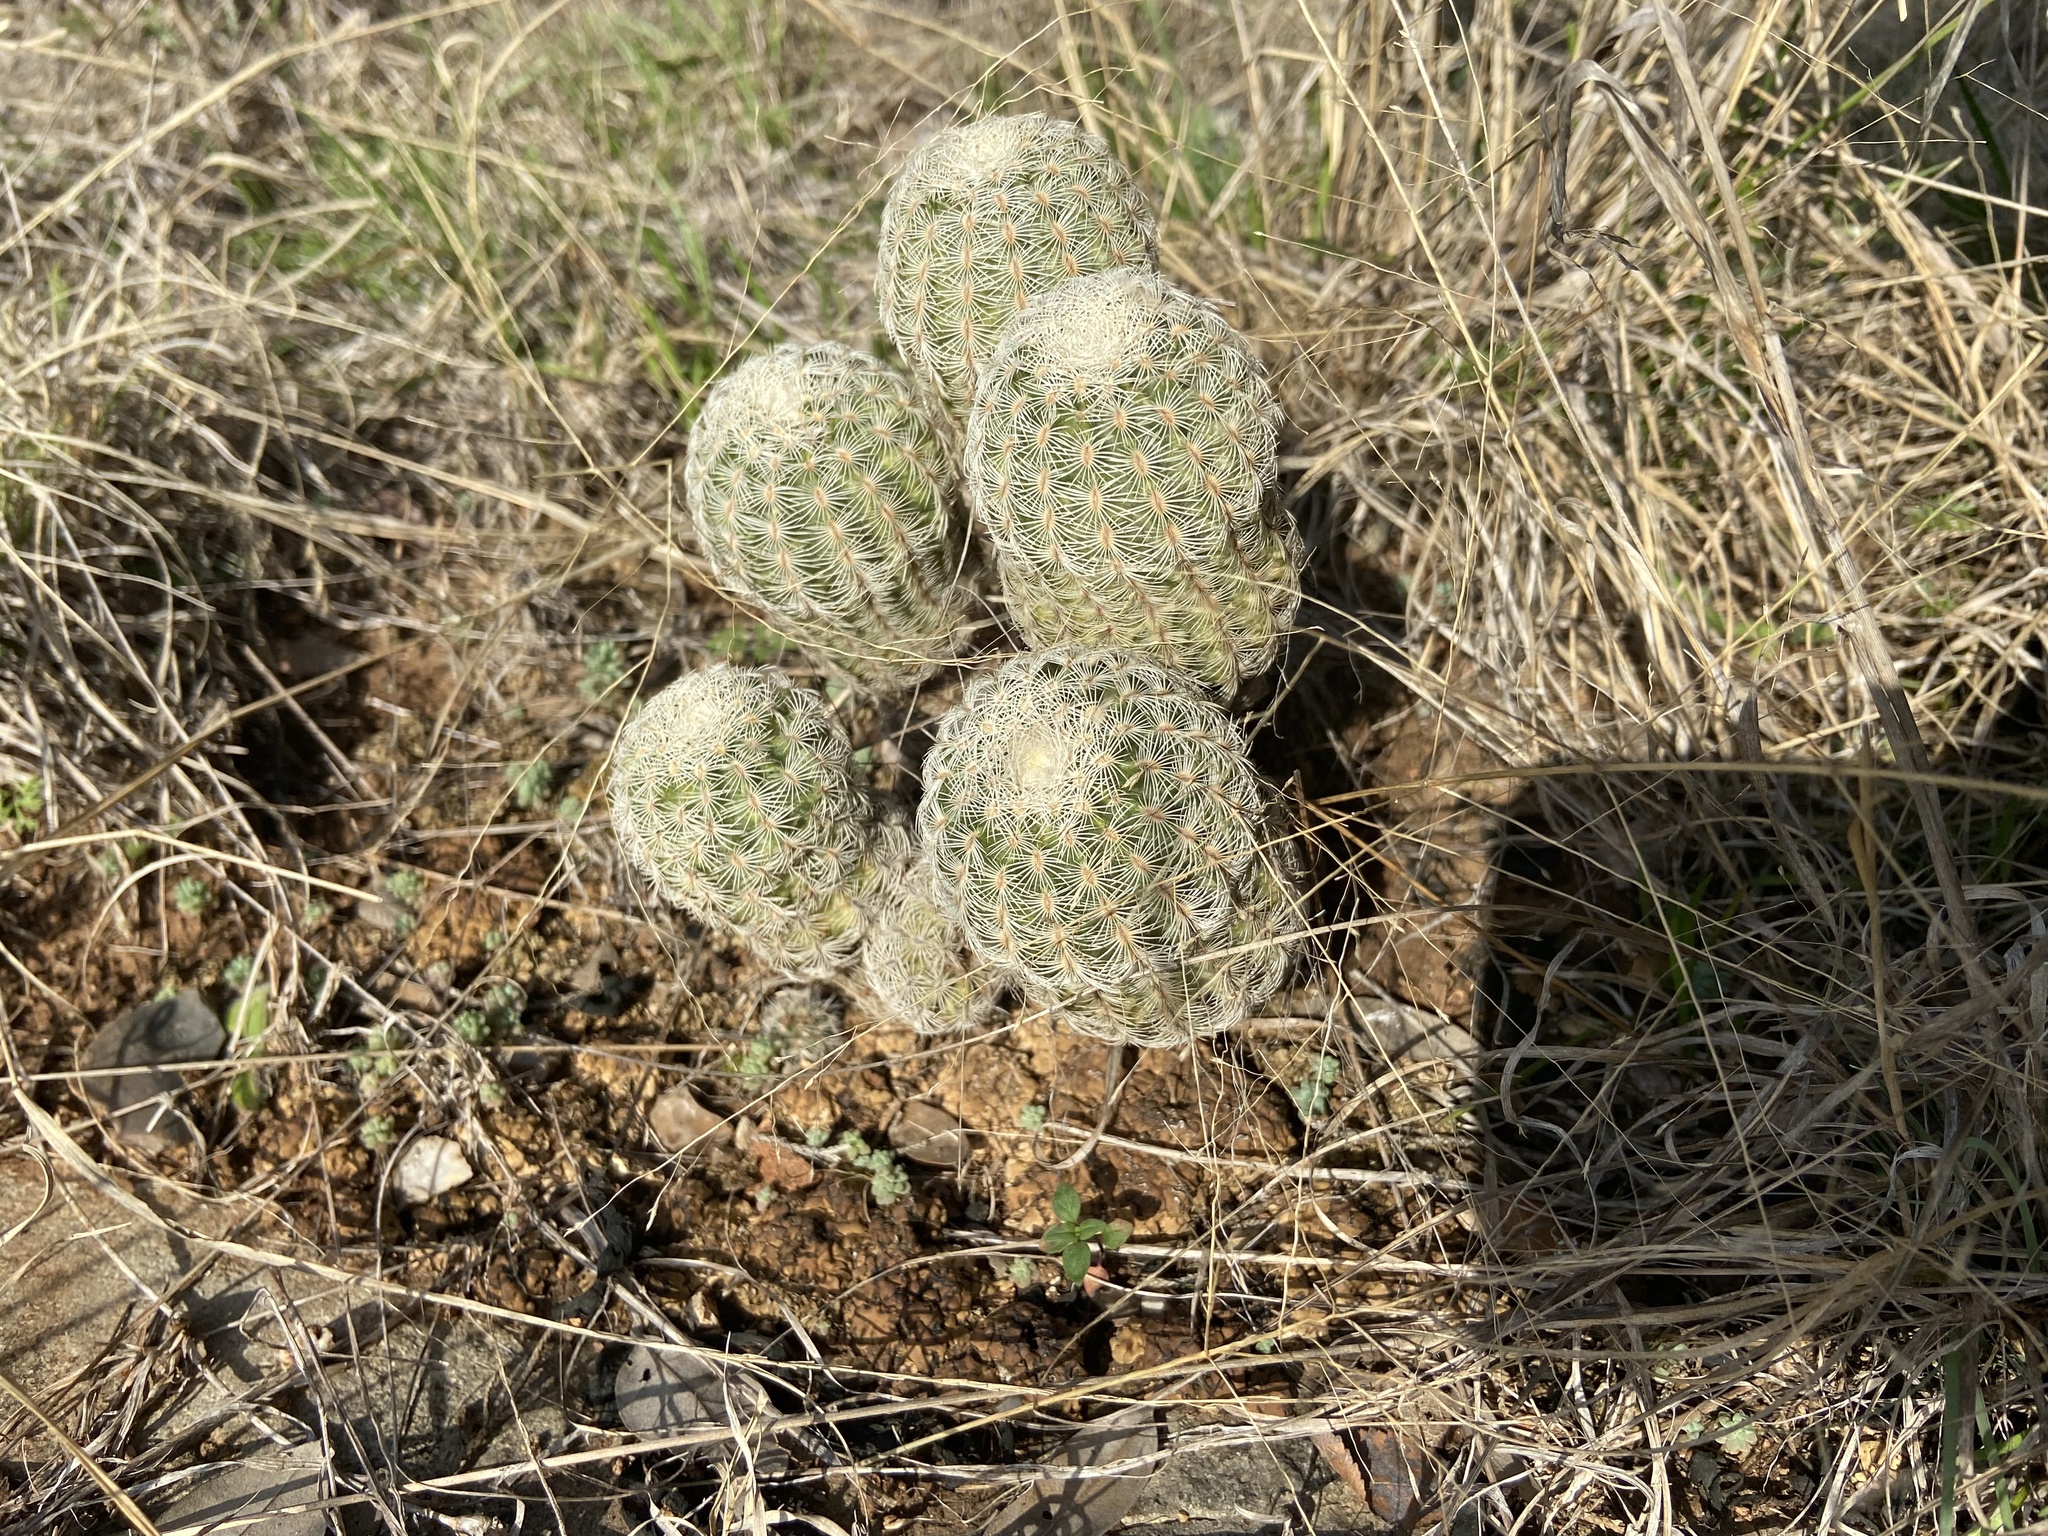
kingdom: Plantae
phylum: Tracheophyta
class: Magnoliopsida
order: Caryophyllales
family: Cactaceae
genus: Echinocereus
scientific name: Echinocereus reichenbachii
